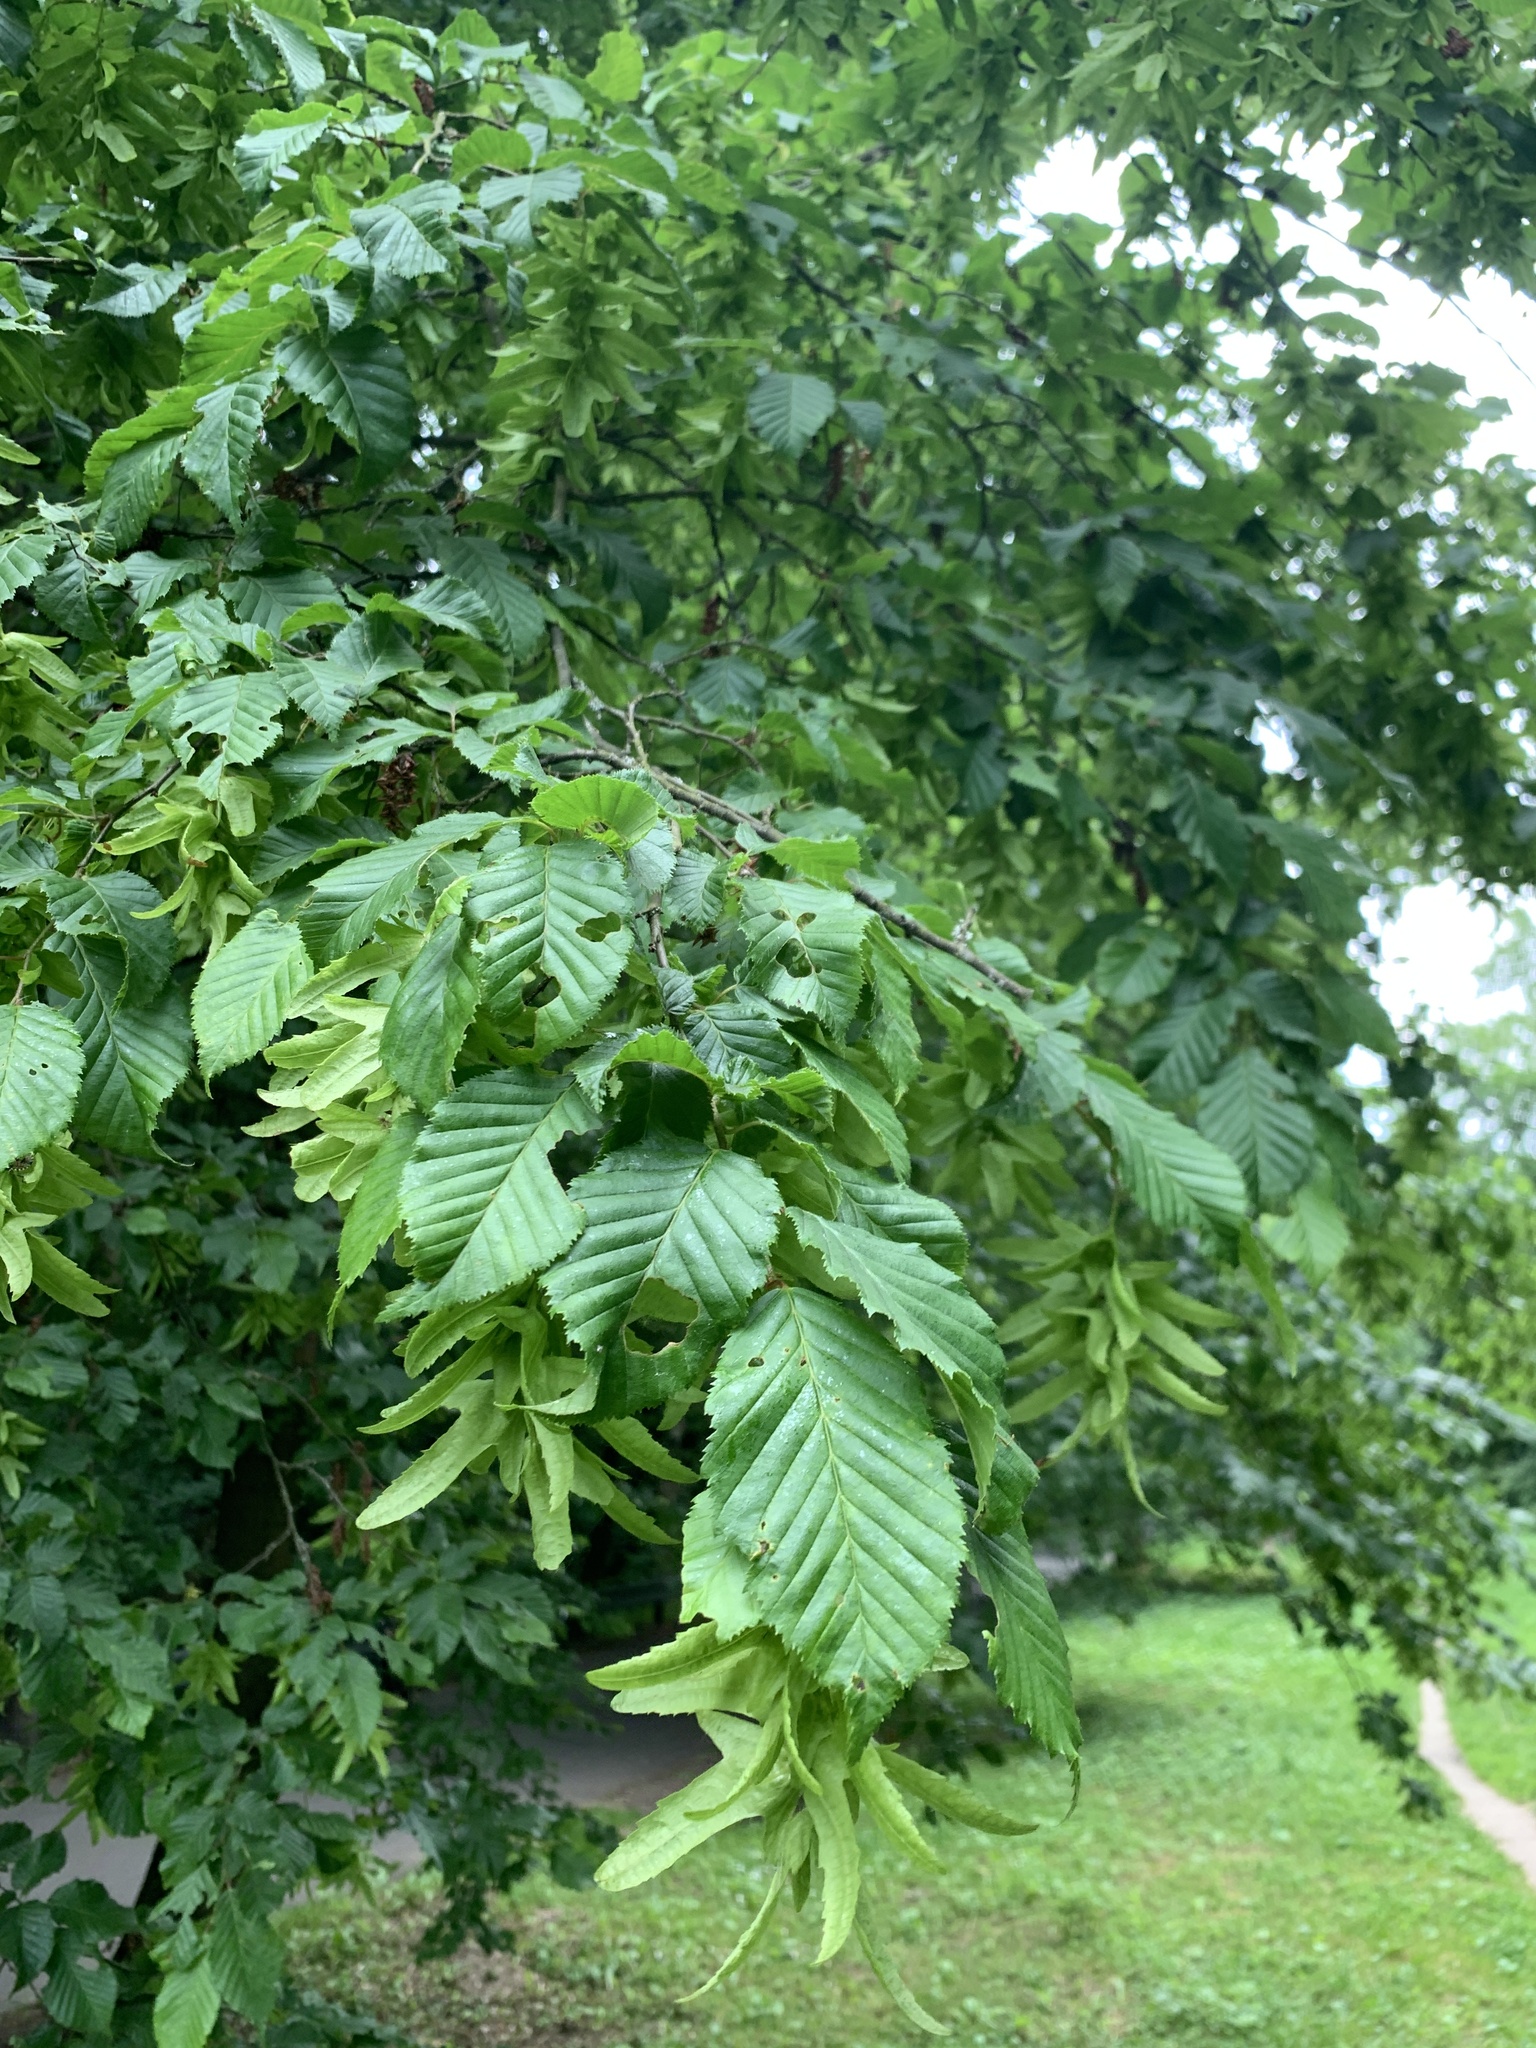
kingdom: Plantae
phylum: Tracheophyta
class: Magnoliopsida
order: Fagales
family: Betulaceae
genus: Carpinus
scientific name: Carpinus betulus
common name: Hornbeam
